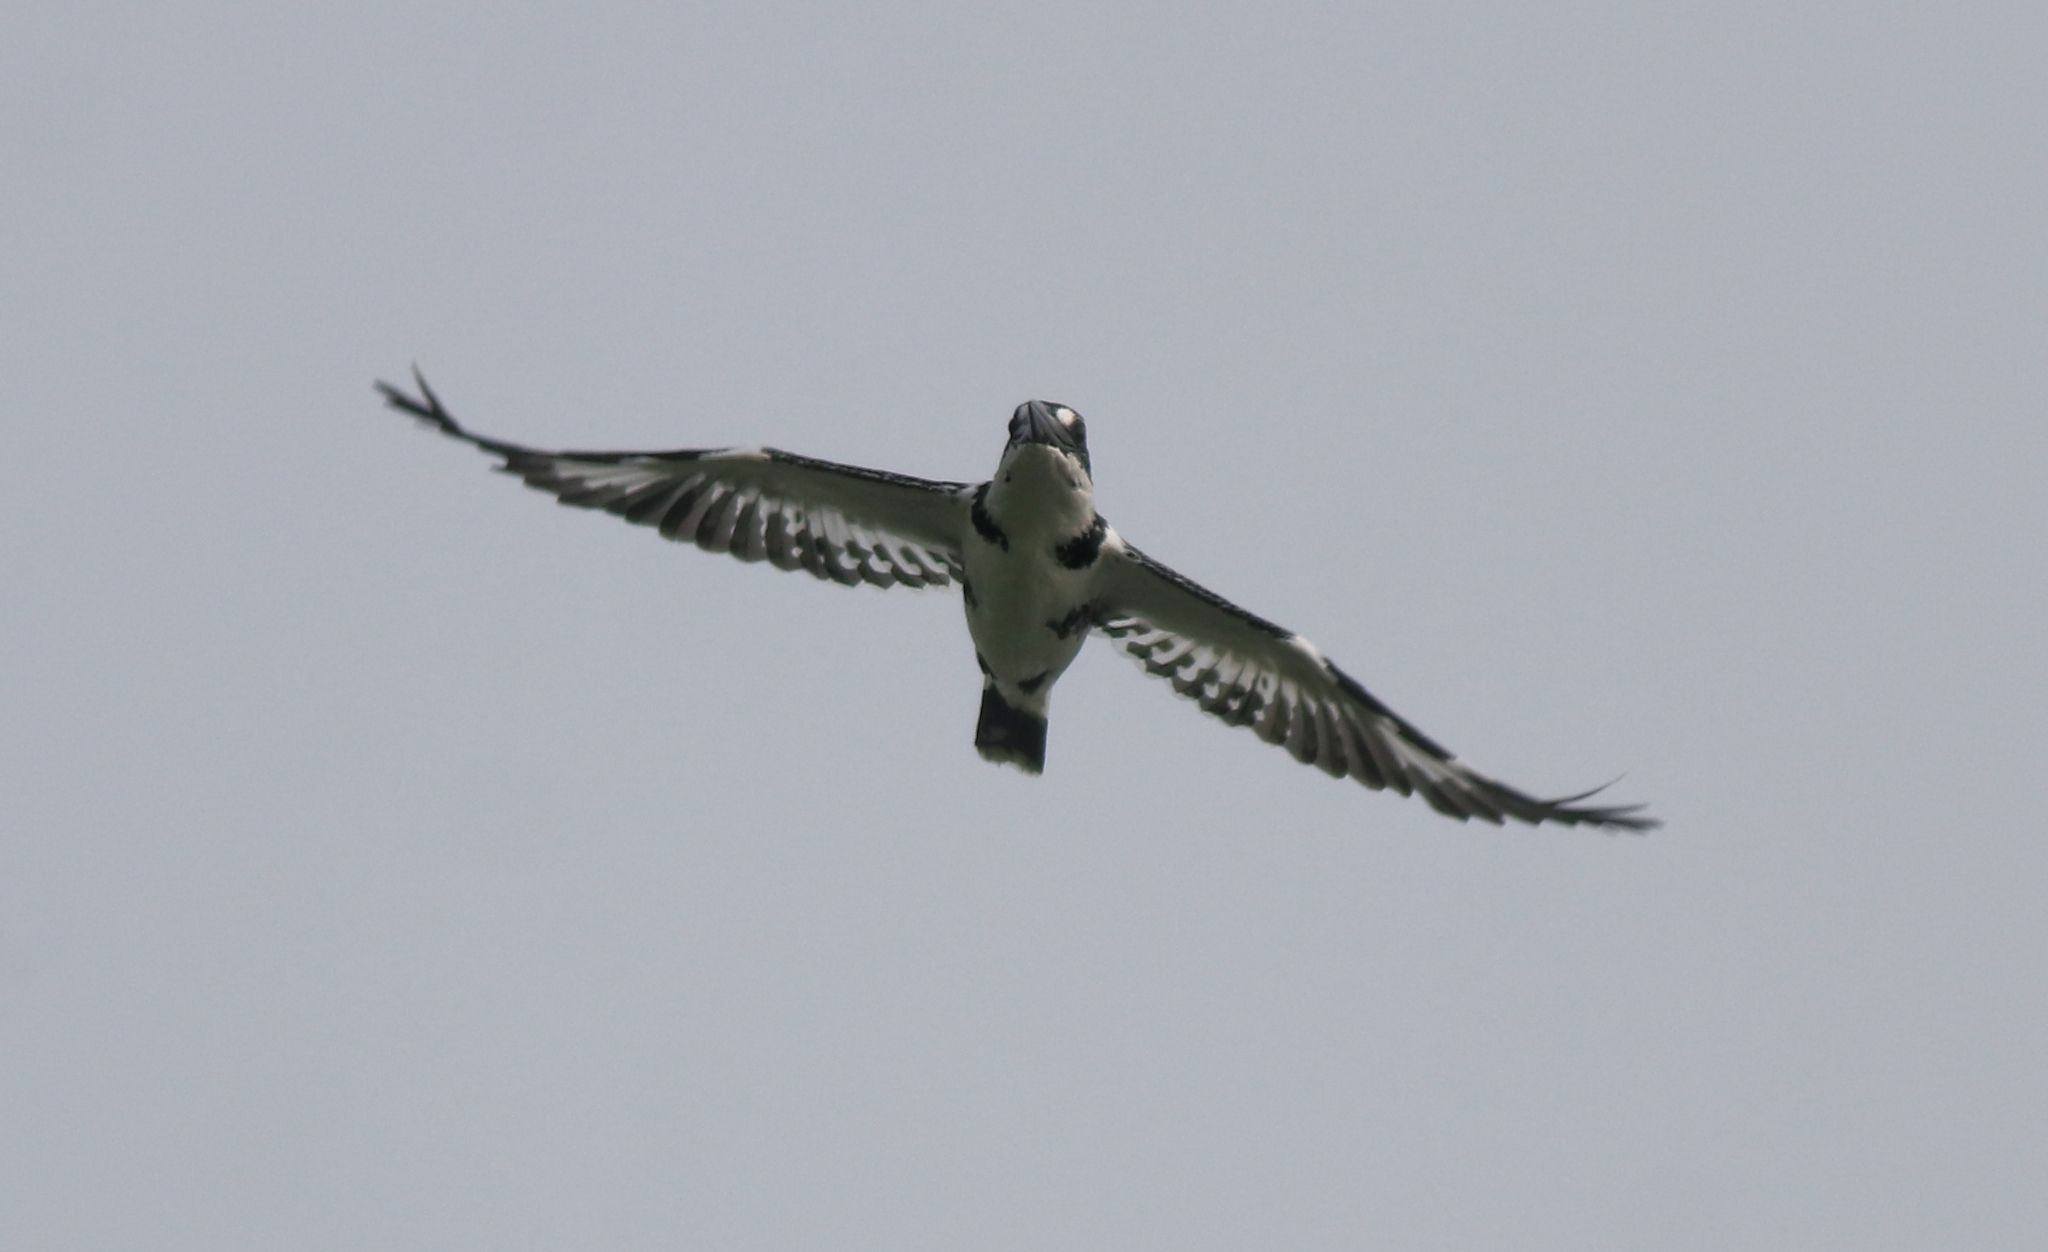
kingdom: Animalia
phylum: Chordata
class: Aves
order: Coraciiformes
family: Alcedinidae
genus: Ceryle
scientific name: Ceryle rudis
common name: Pied kingfisher
